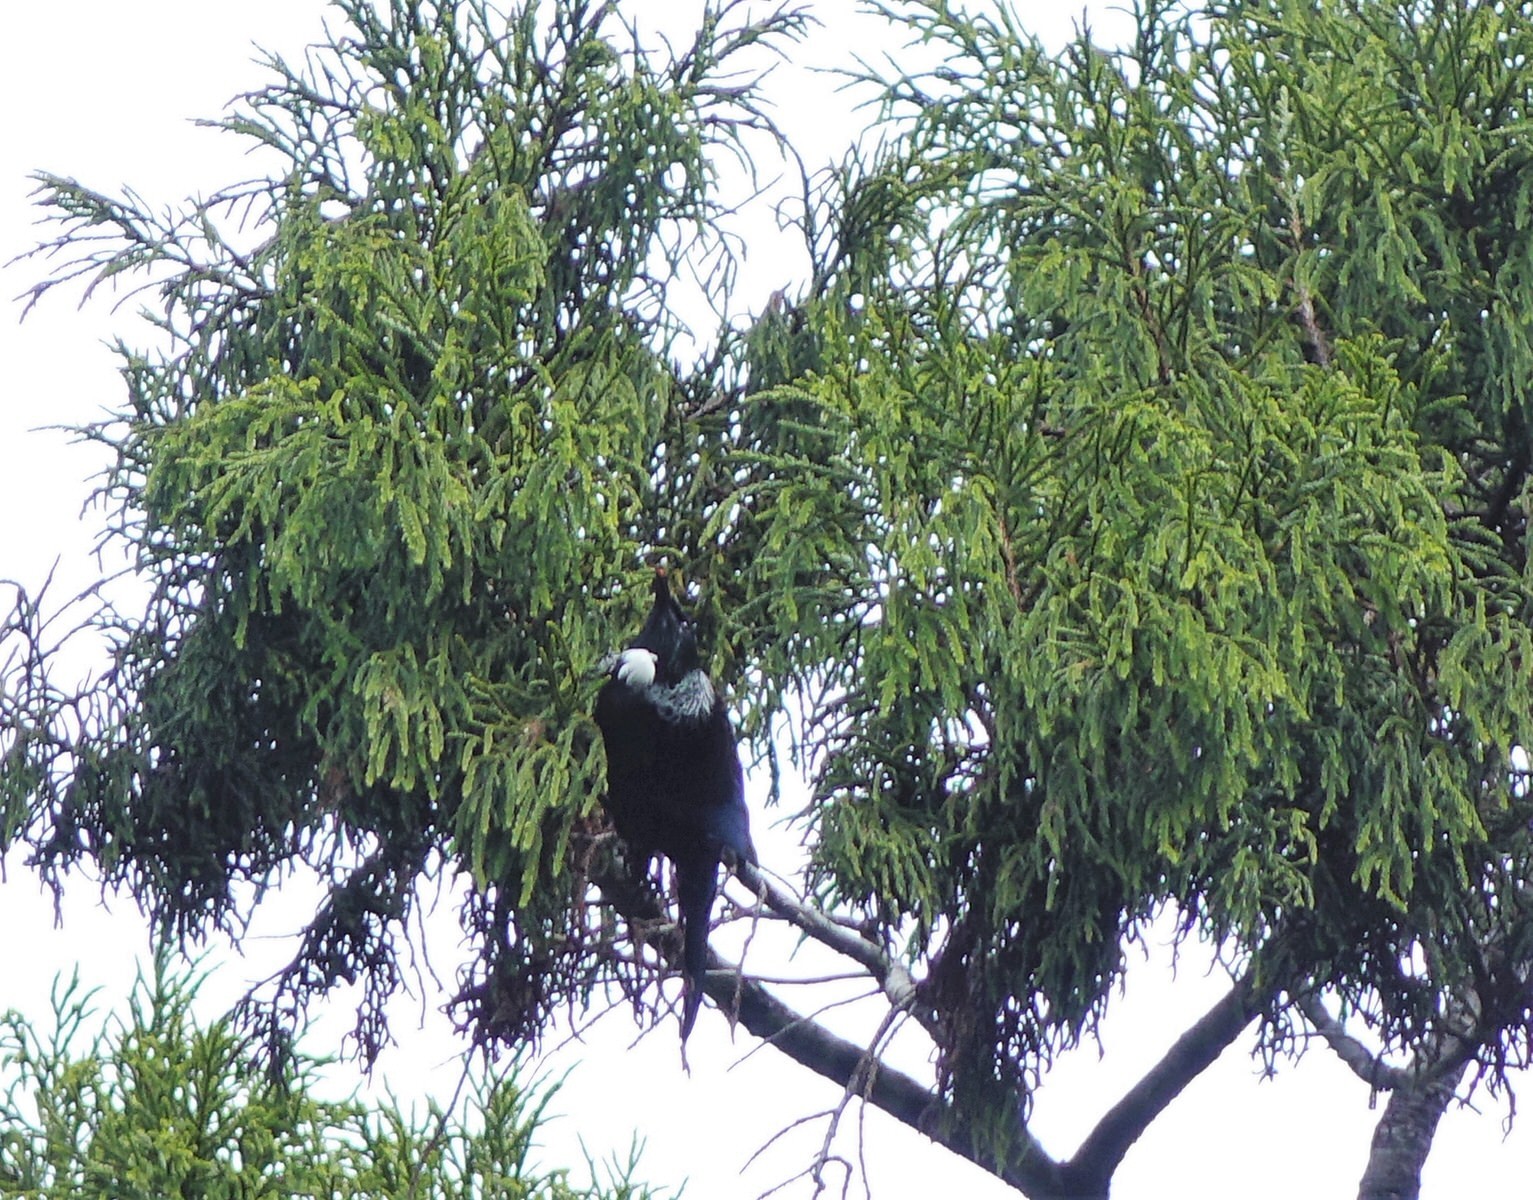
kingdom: Animalia
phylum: Chordata
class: Aves
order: Passeriformes
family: Meliphagidae
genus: Prosthemadera
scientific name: Prosthemadera novaeseelandiae
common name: Tui
